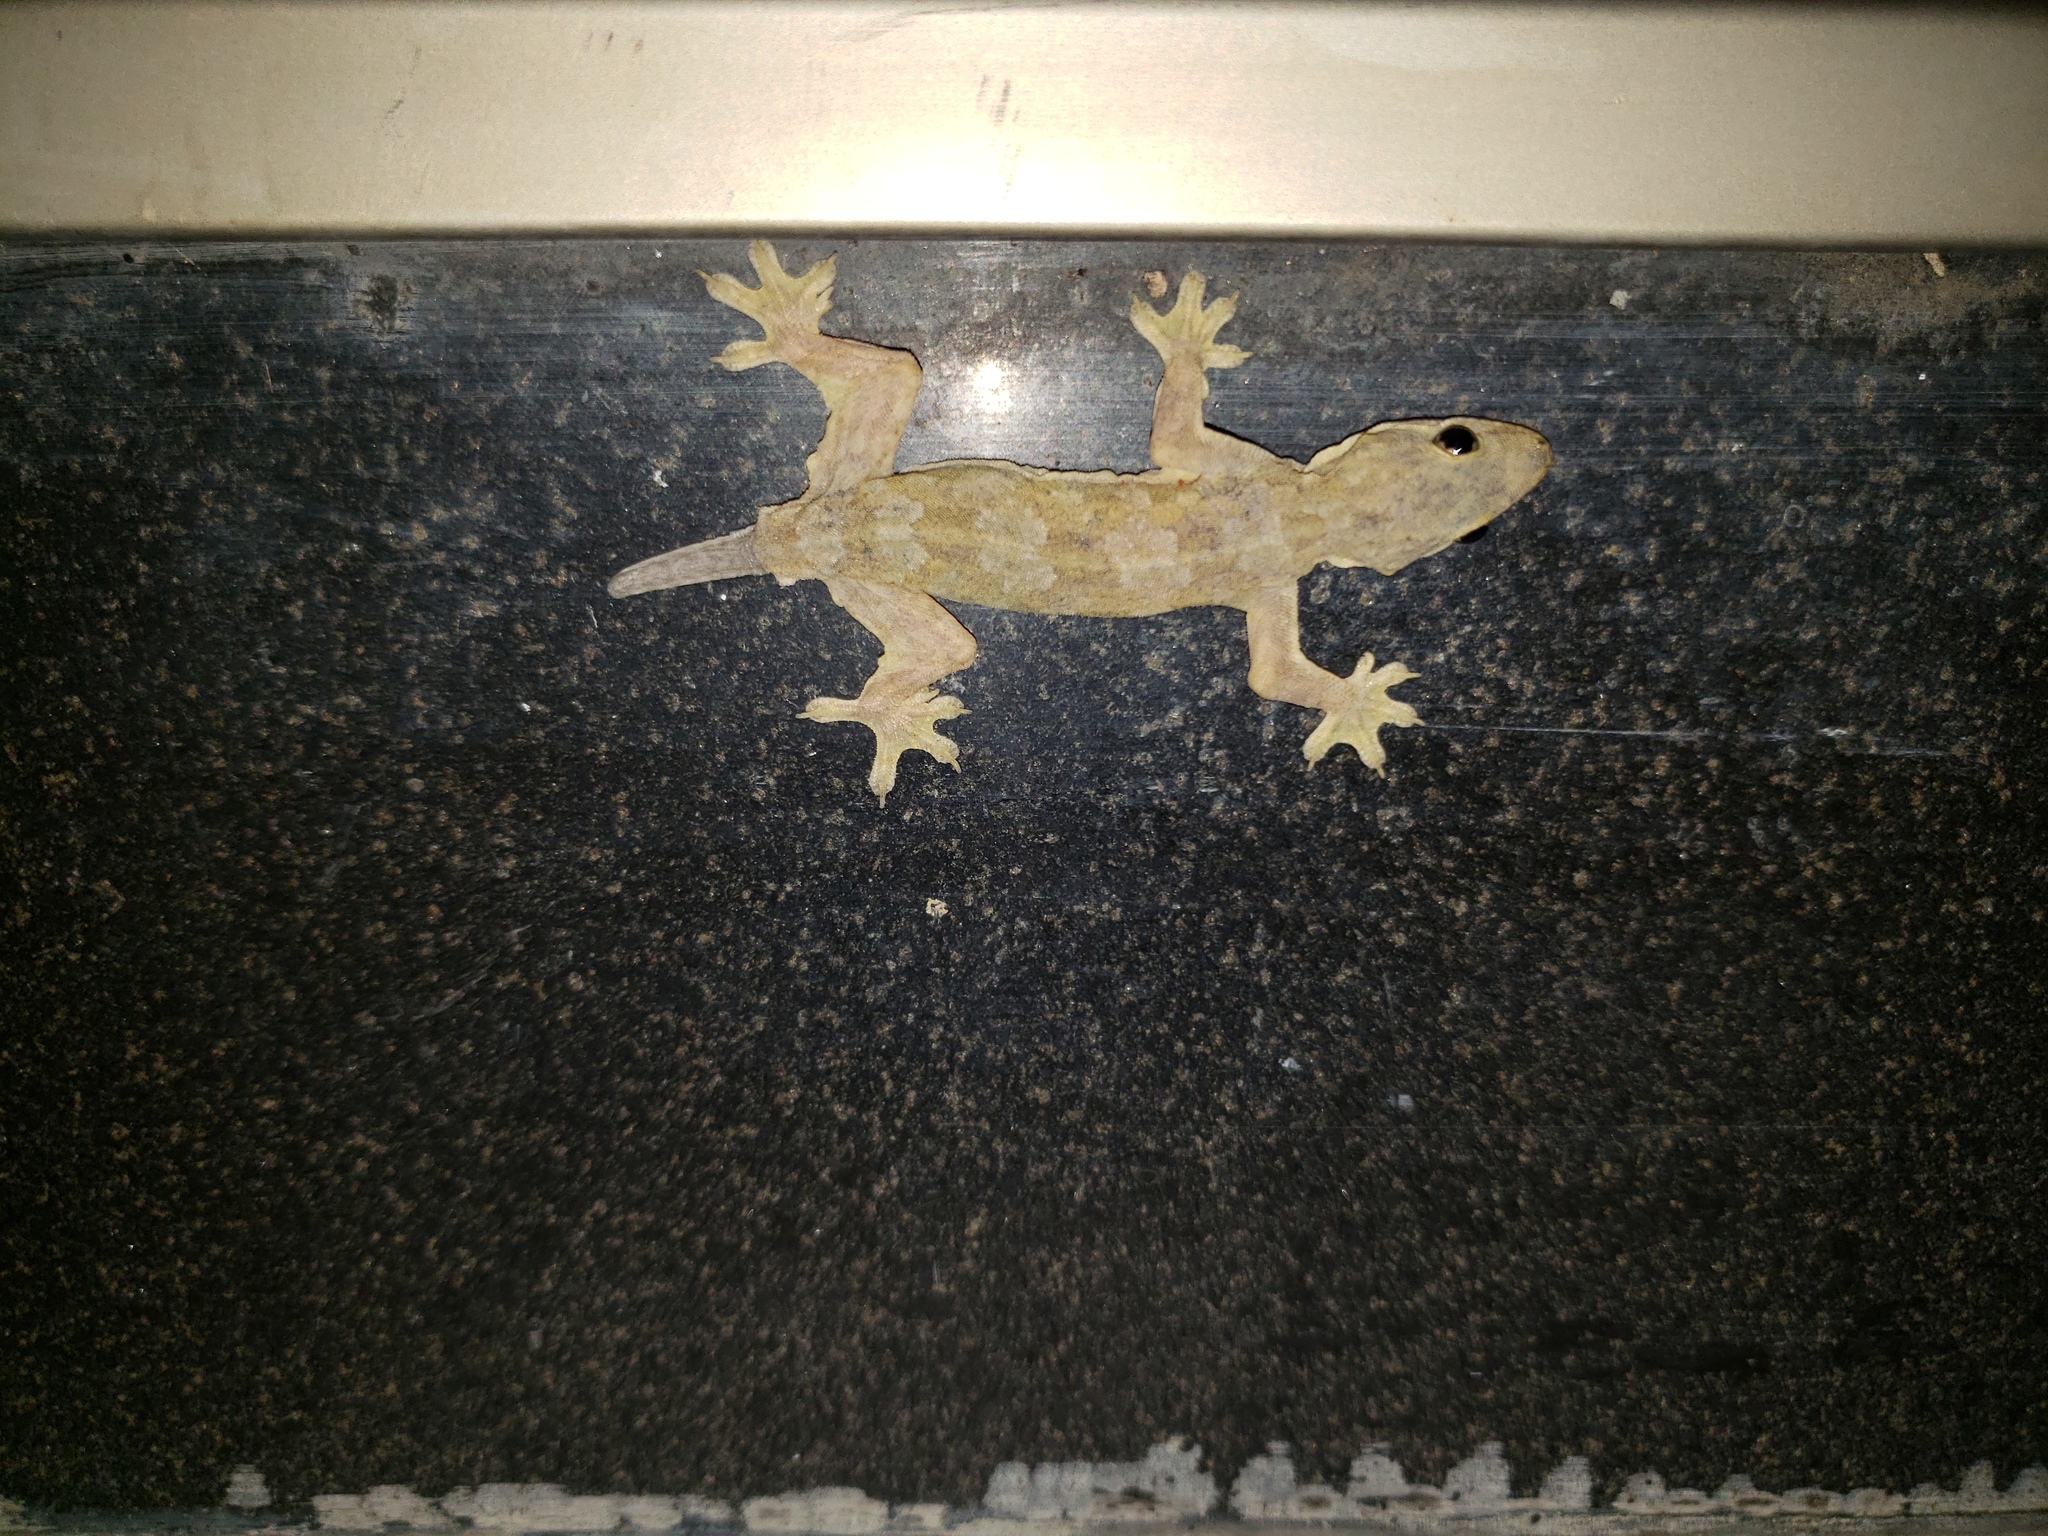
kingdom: Animalia
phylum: Chordata
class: Squamata
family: Gekkonidae
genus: Hemidactylus
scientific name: Hemidactylus platyurus
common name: Flat-tailed house gecko
